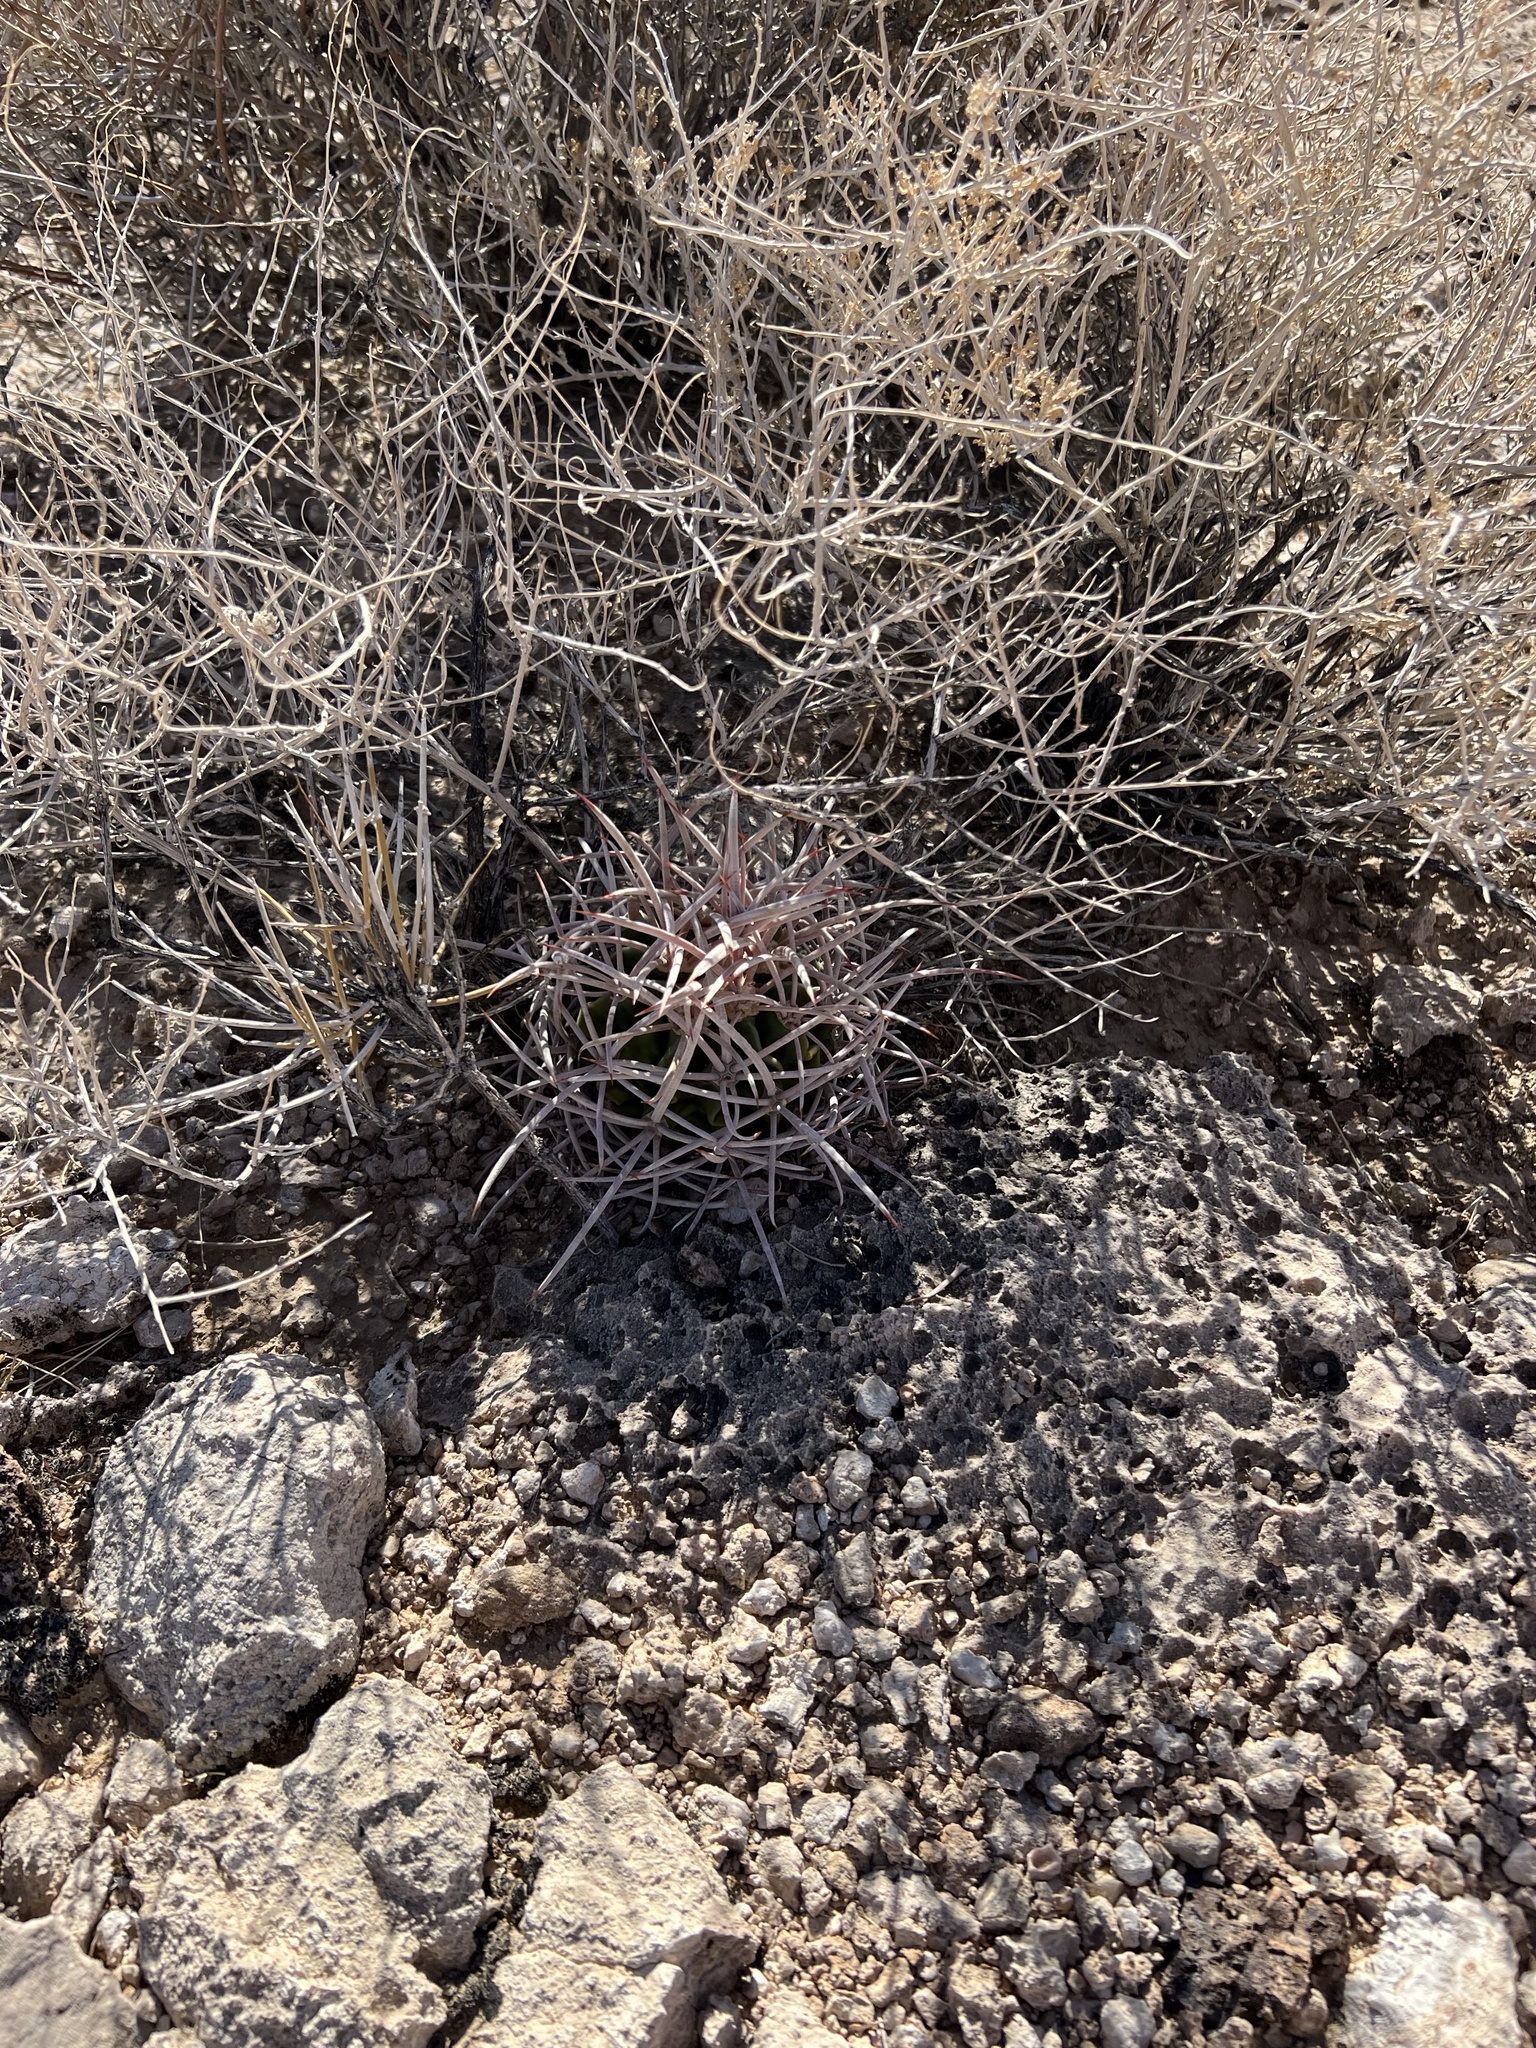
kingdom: Plantae
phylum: Tracheophyta
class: Magnoliopsida
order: Caryophyllales
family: Cactaceae
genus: Echinocactus
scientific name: Echinocactus polycephalus
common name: Cottontop cactus
